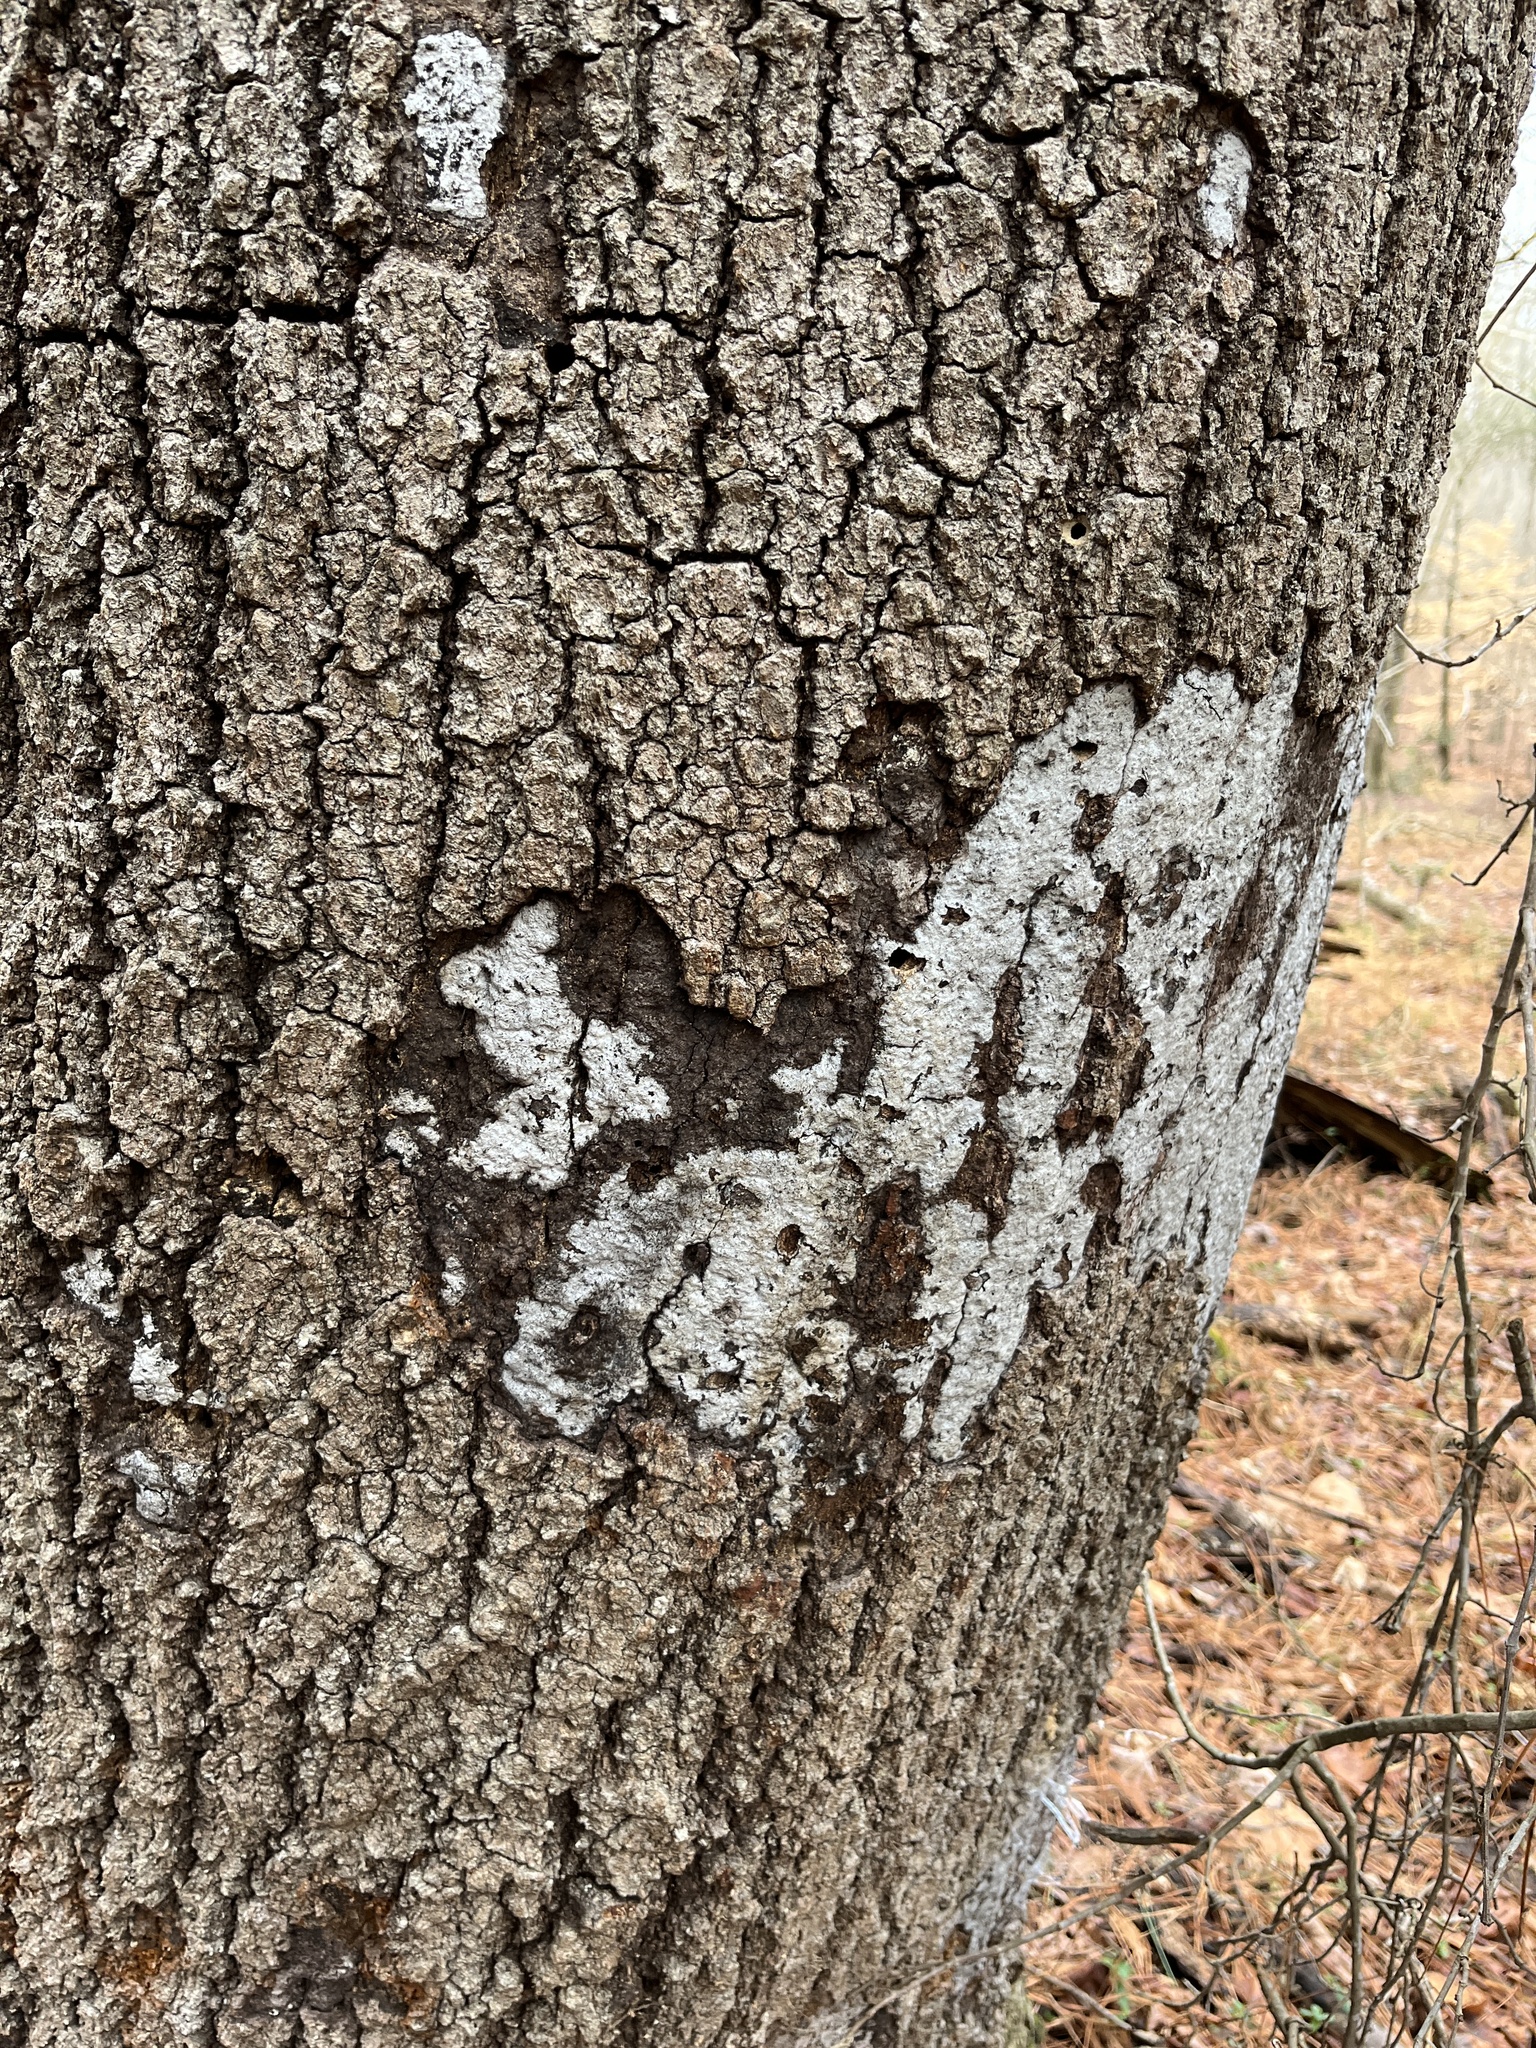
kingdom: Fungi
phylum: Ascomycota
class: Sordariomycetes
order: Xylariales
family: Graphostromataceae
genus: Biscogniauxia
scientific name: Biscogniauxia atropunctata
